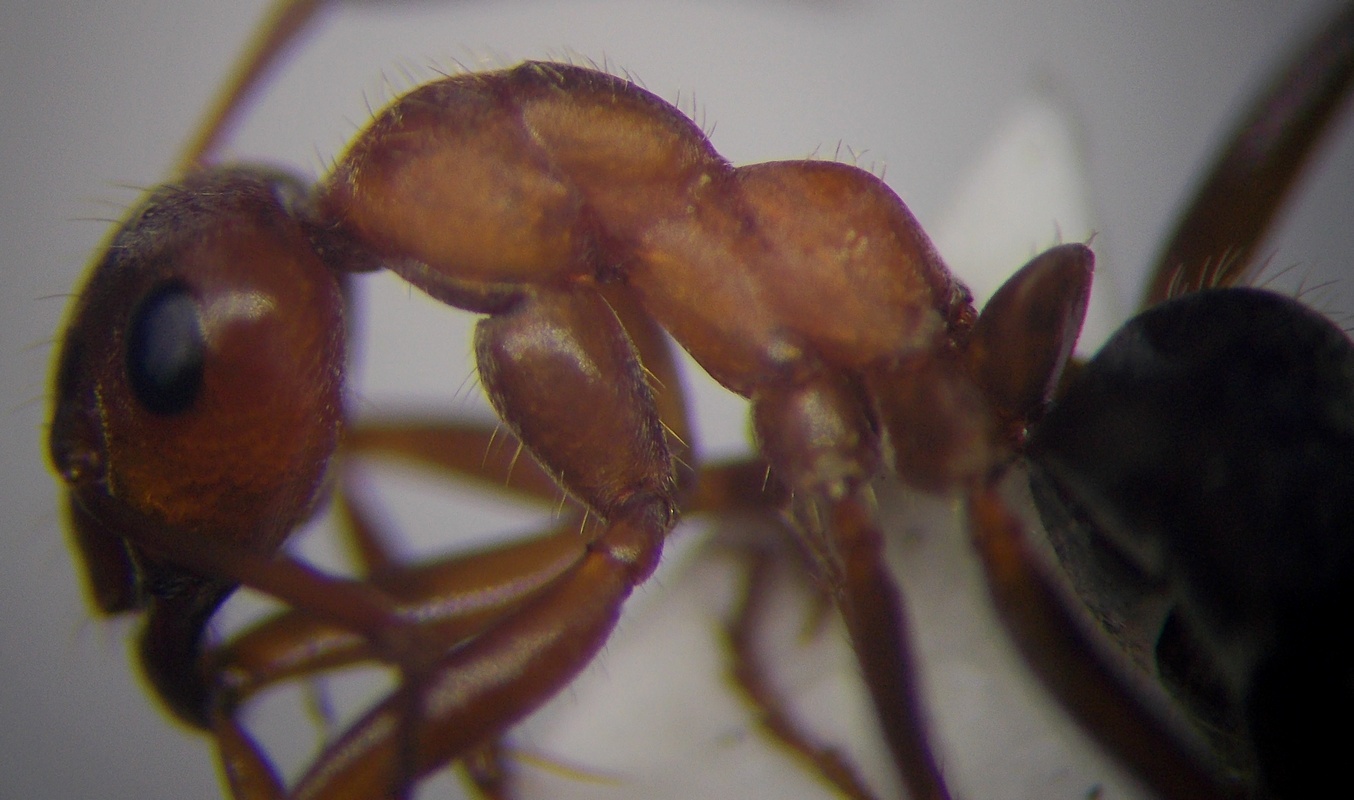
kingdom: Animalia
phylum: Arthropoda
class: Insecta
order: Hymenoptera
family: Formicidae
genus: Formica
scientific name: Formica subpilosa
